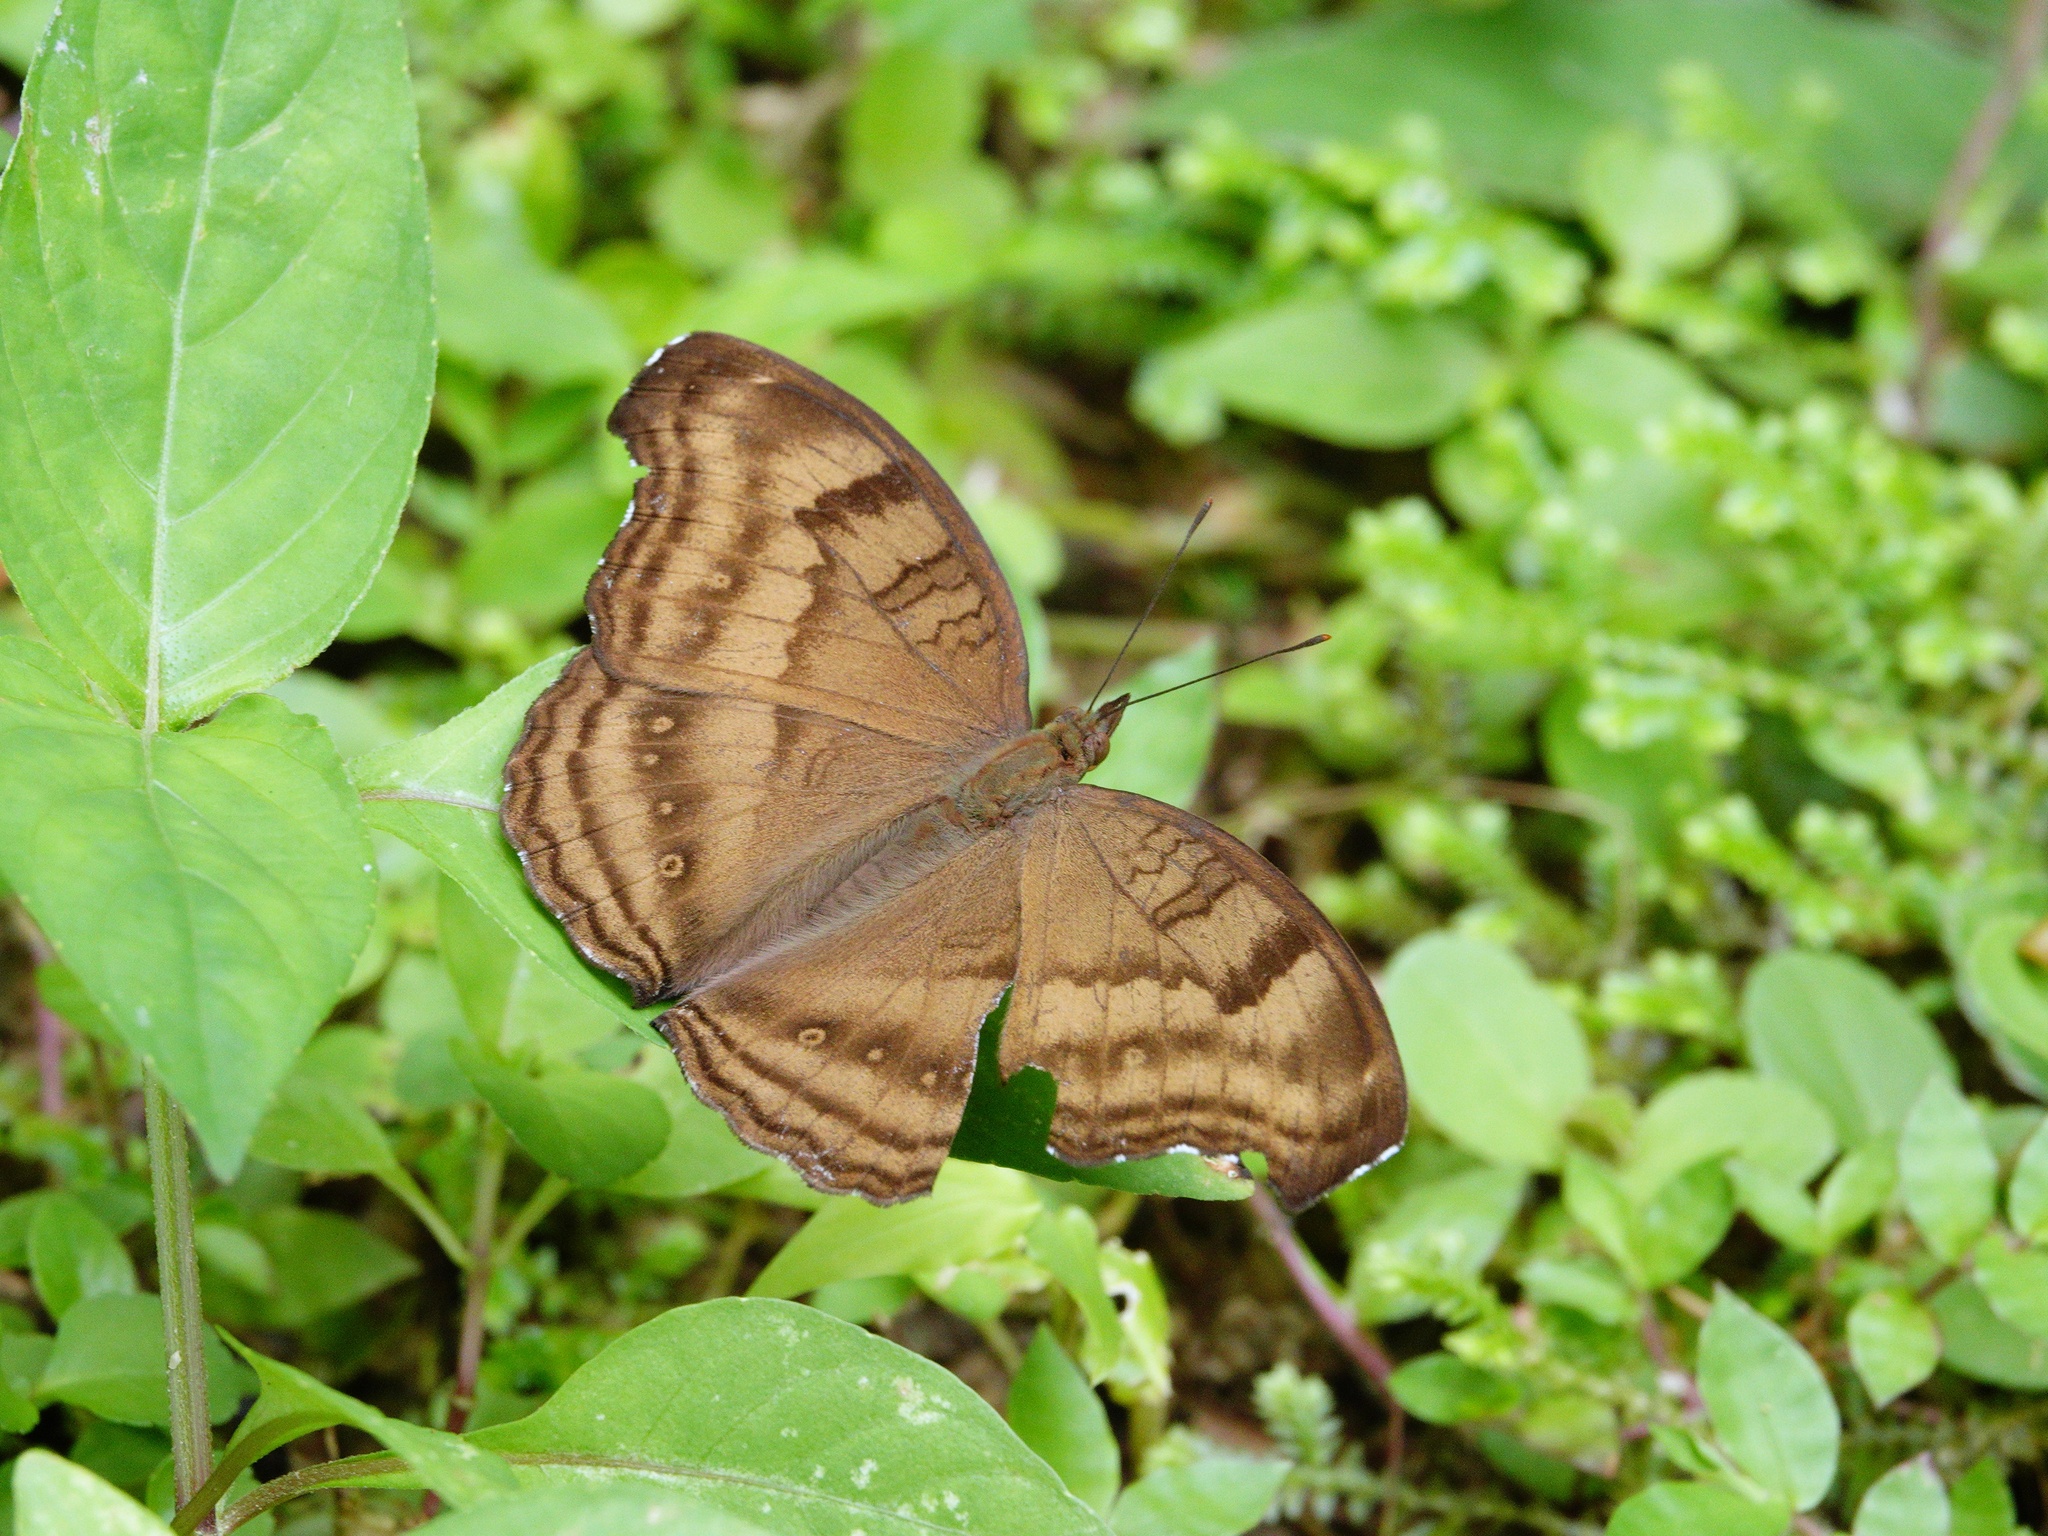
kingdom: Animalia
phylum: Arthropoda
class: Insecta
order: Lepidoptera
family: Nymphalidae
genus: Junonia
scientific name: Junonia iphita
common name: Chocolate pansy
